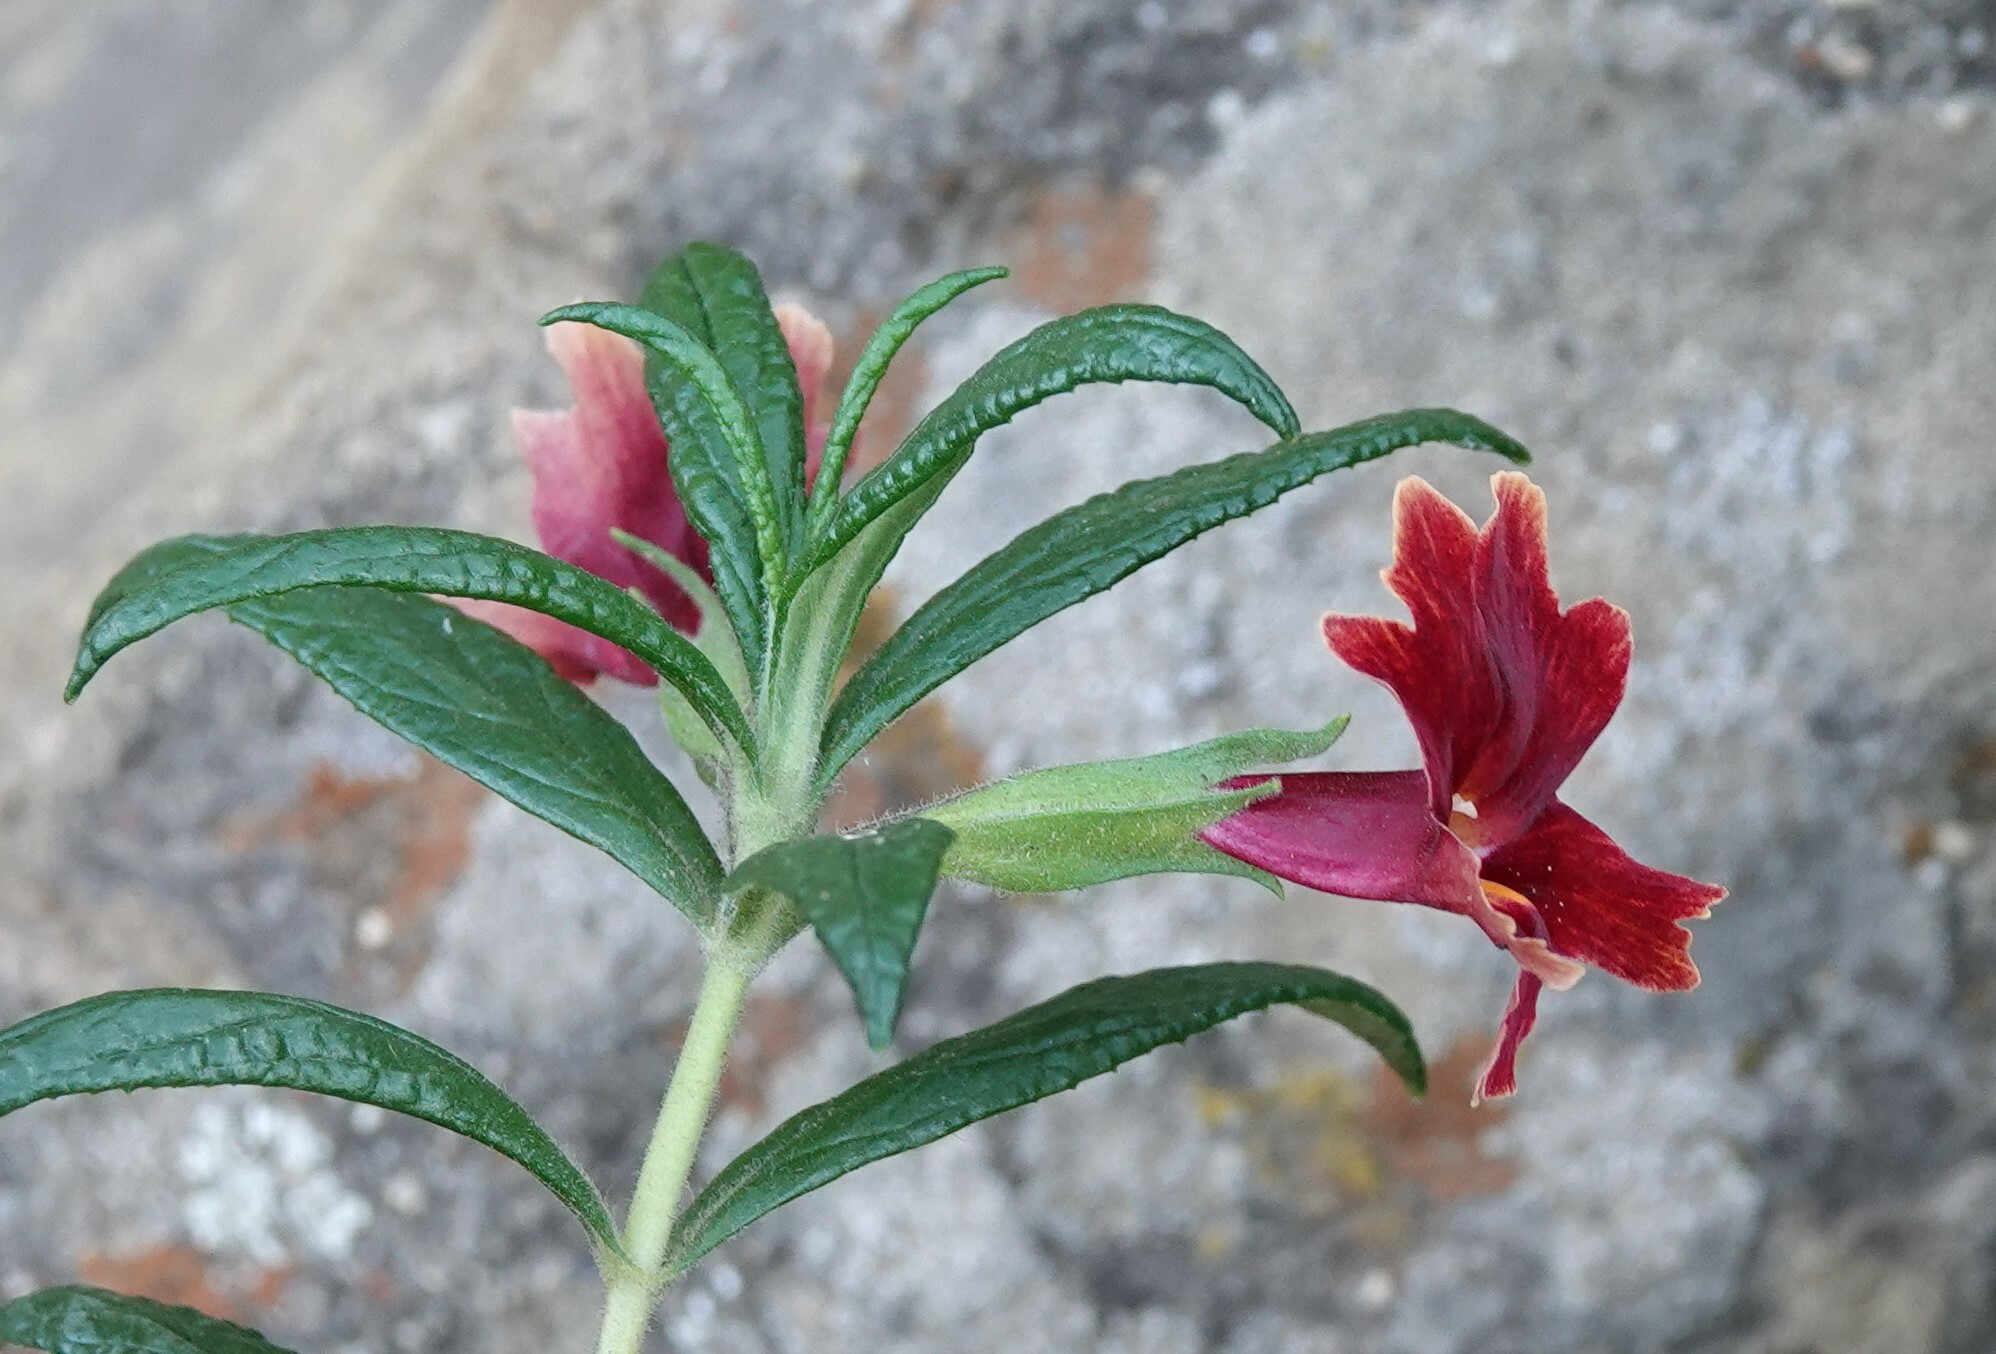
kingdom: Plantae
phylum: Tracheophyta
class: Magnoliopsida
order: Lamiales
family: Phrymaceae
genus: Diplacus
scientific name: Diplacus rutilus
